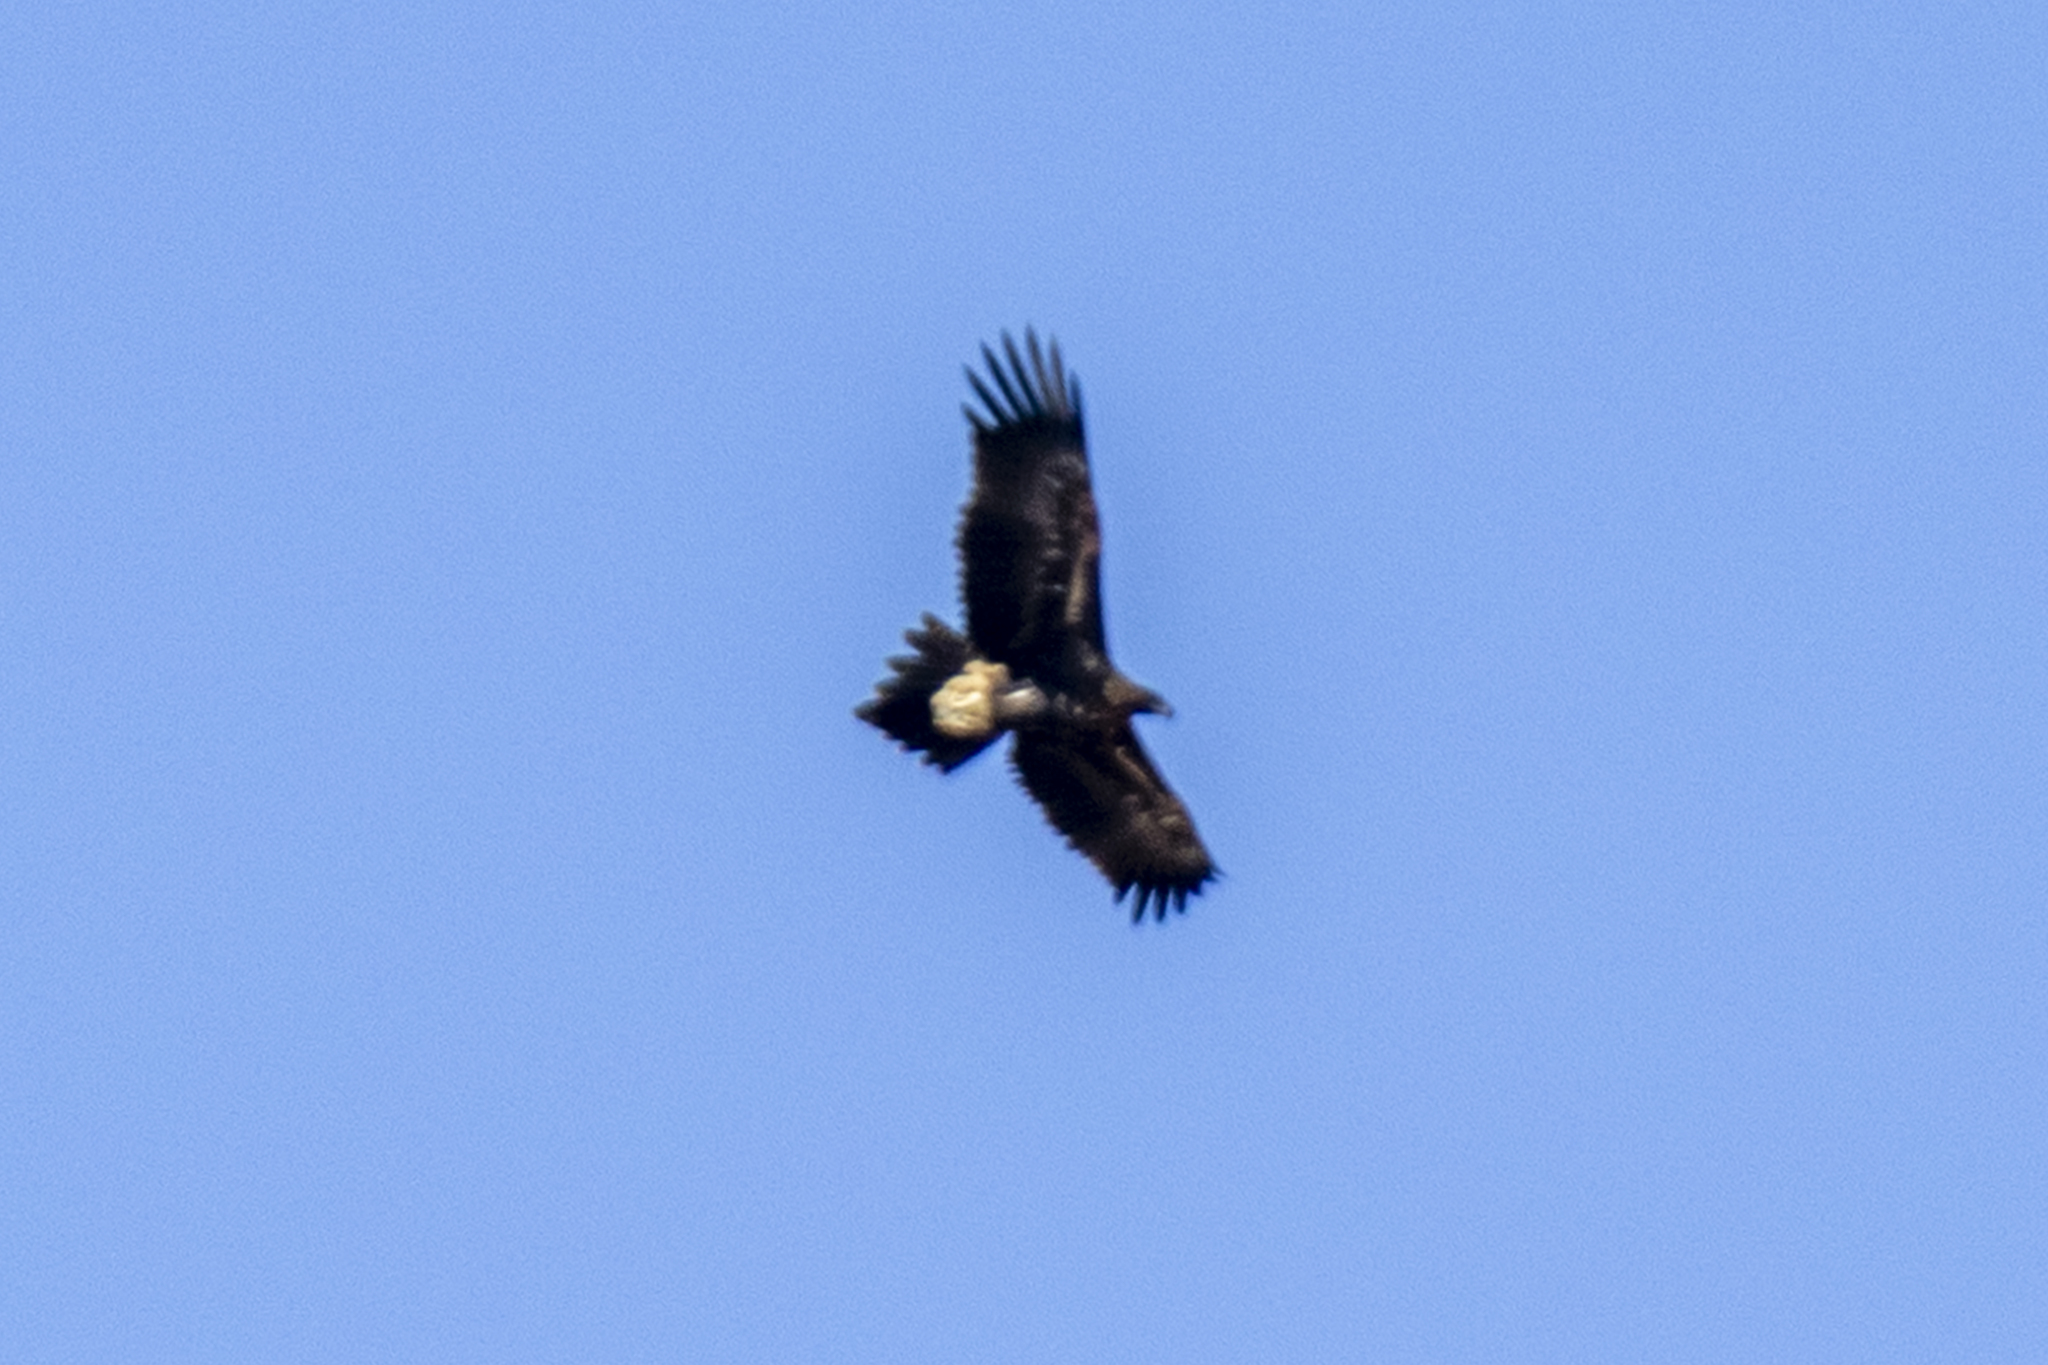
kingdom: Animalia
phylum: Chordata
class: Aves
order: Accipitriformes
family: Accipitridae
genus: Aquila
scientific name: Aquila audax
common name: Wedge-tailed eagle
